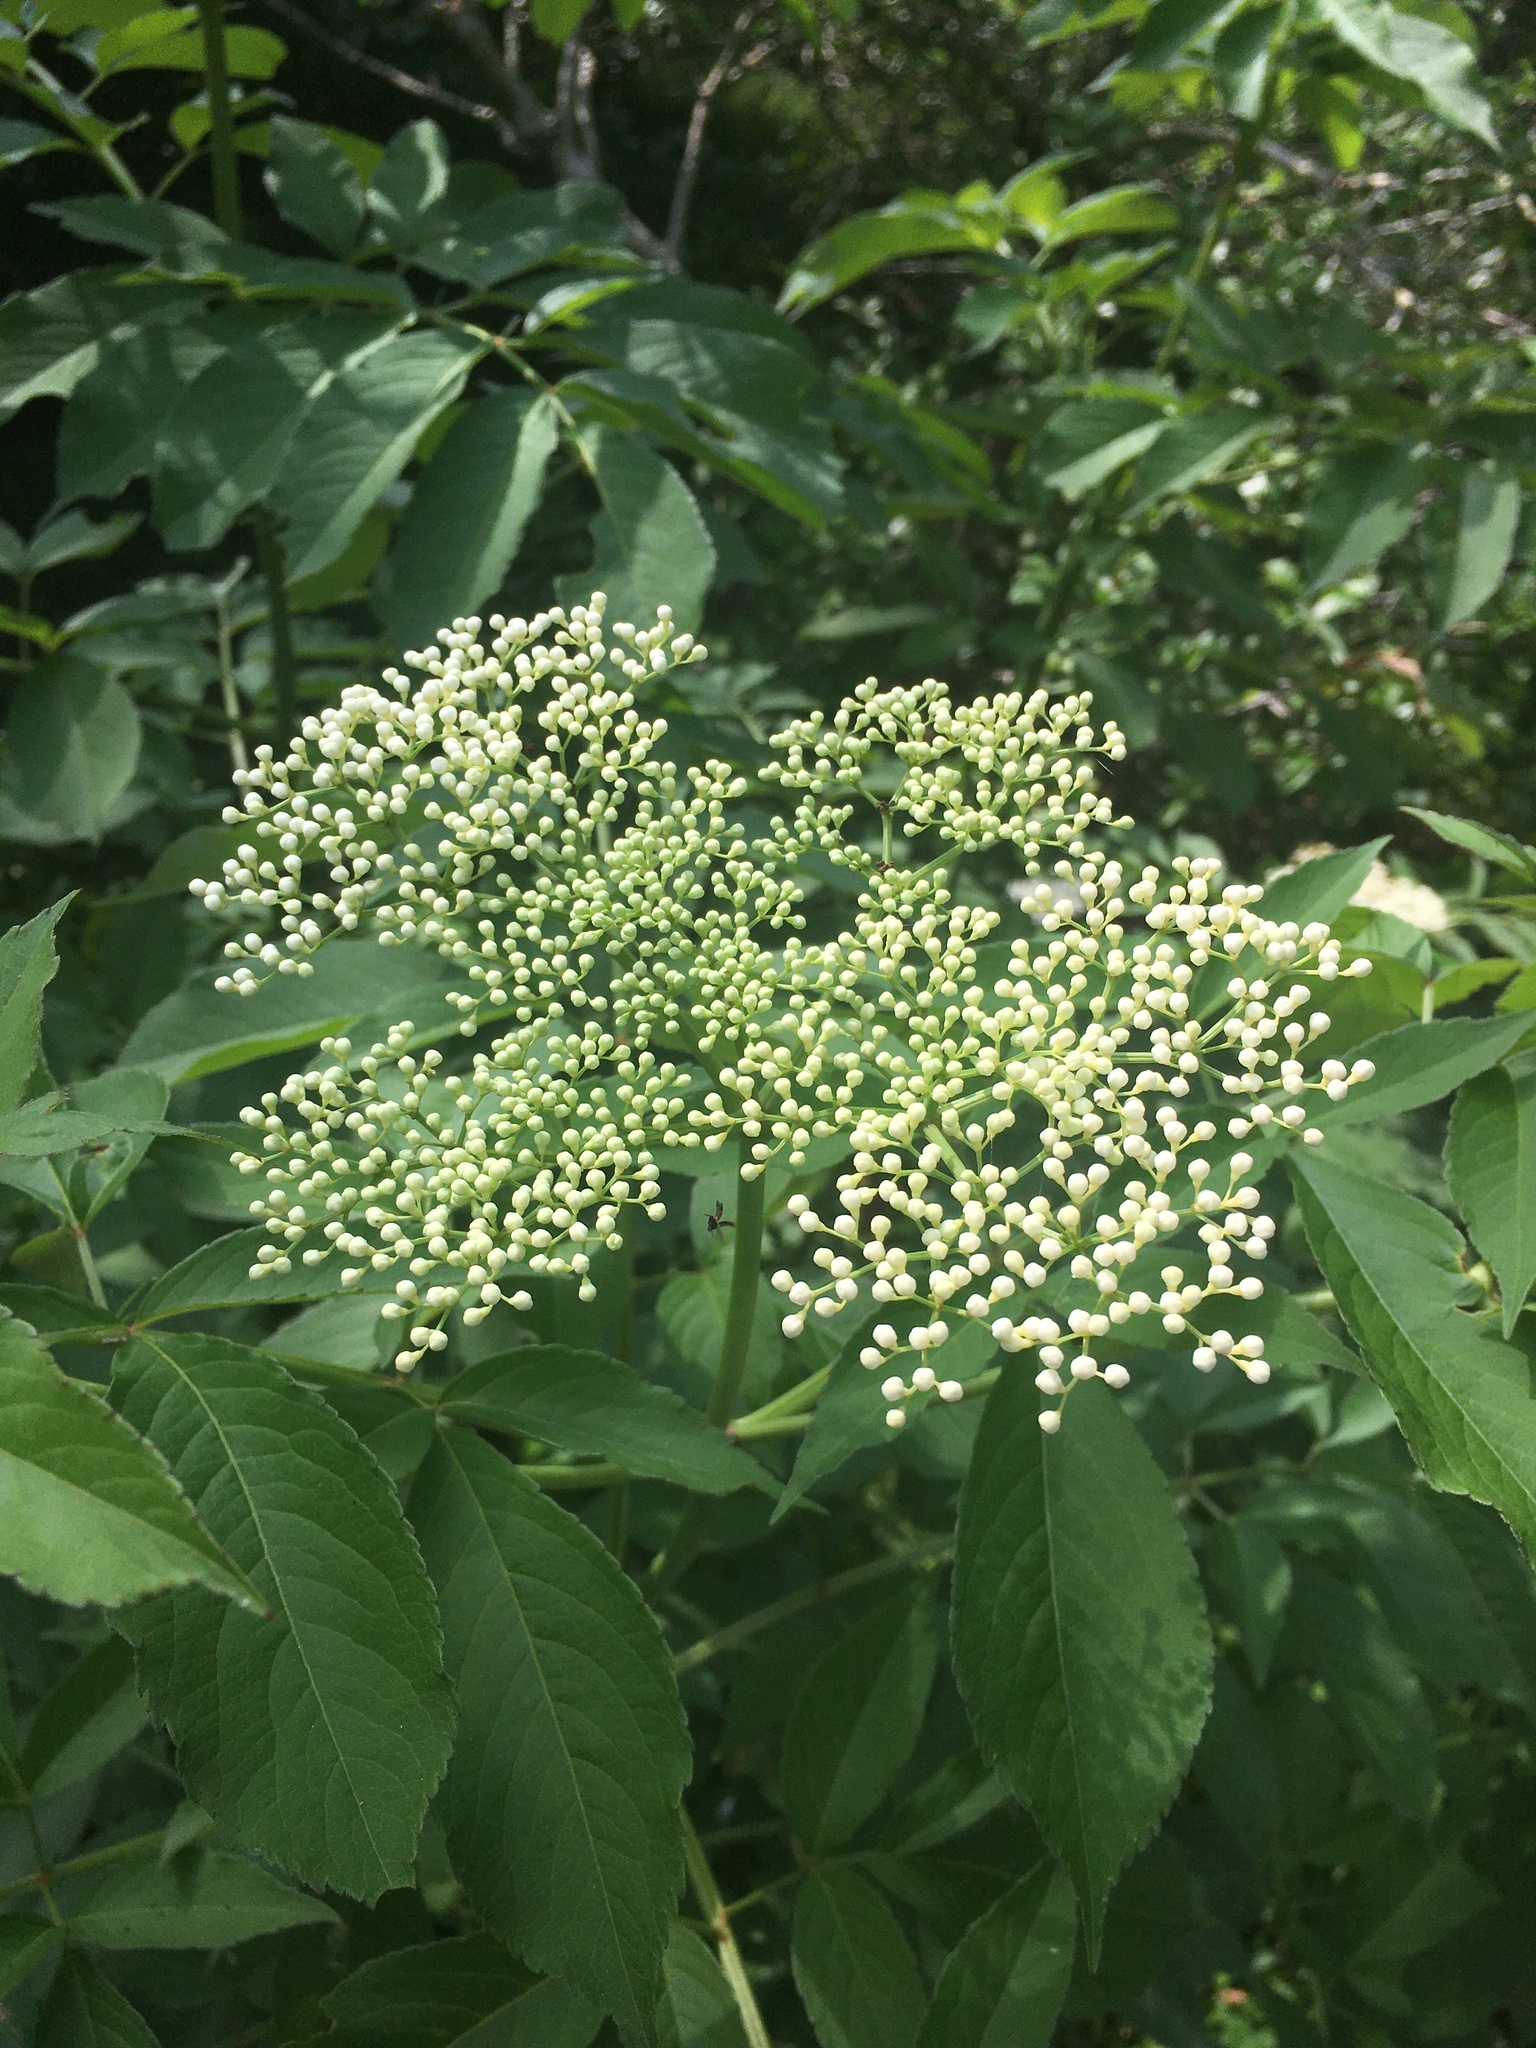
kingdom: Plantae
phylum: Tracheophyta
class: Magnoliopsida
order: Dipsacales
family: Viburnaceae
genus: Sambucus
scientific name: Sambucus canadensis
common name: American elder
